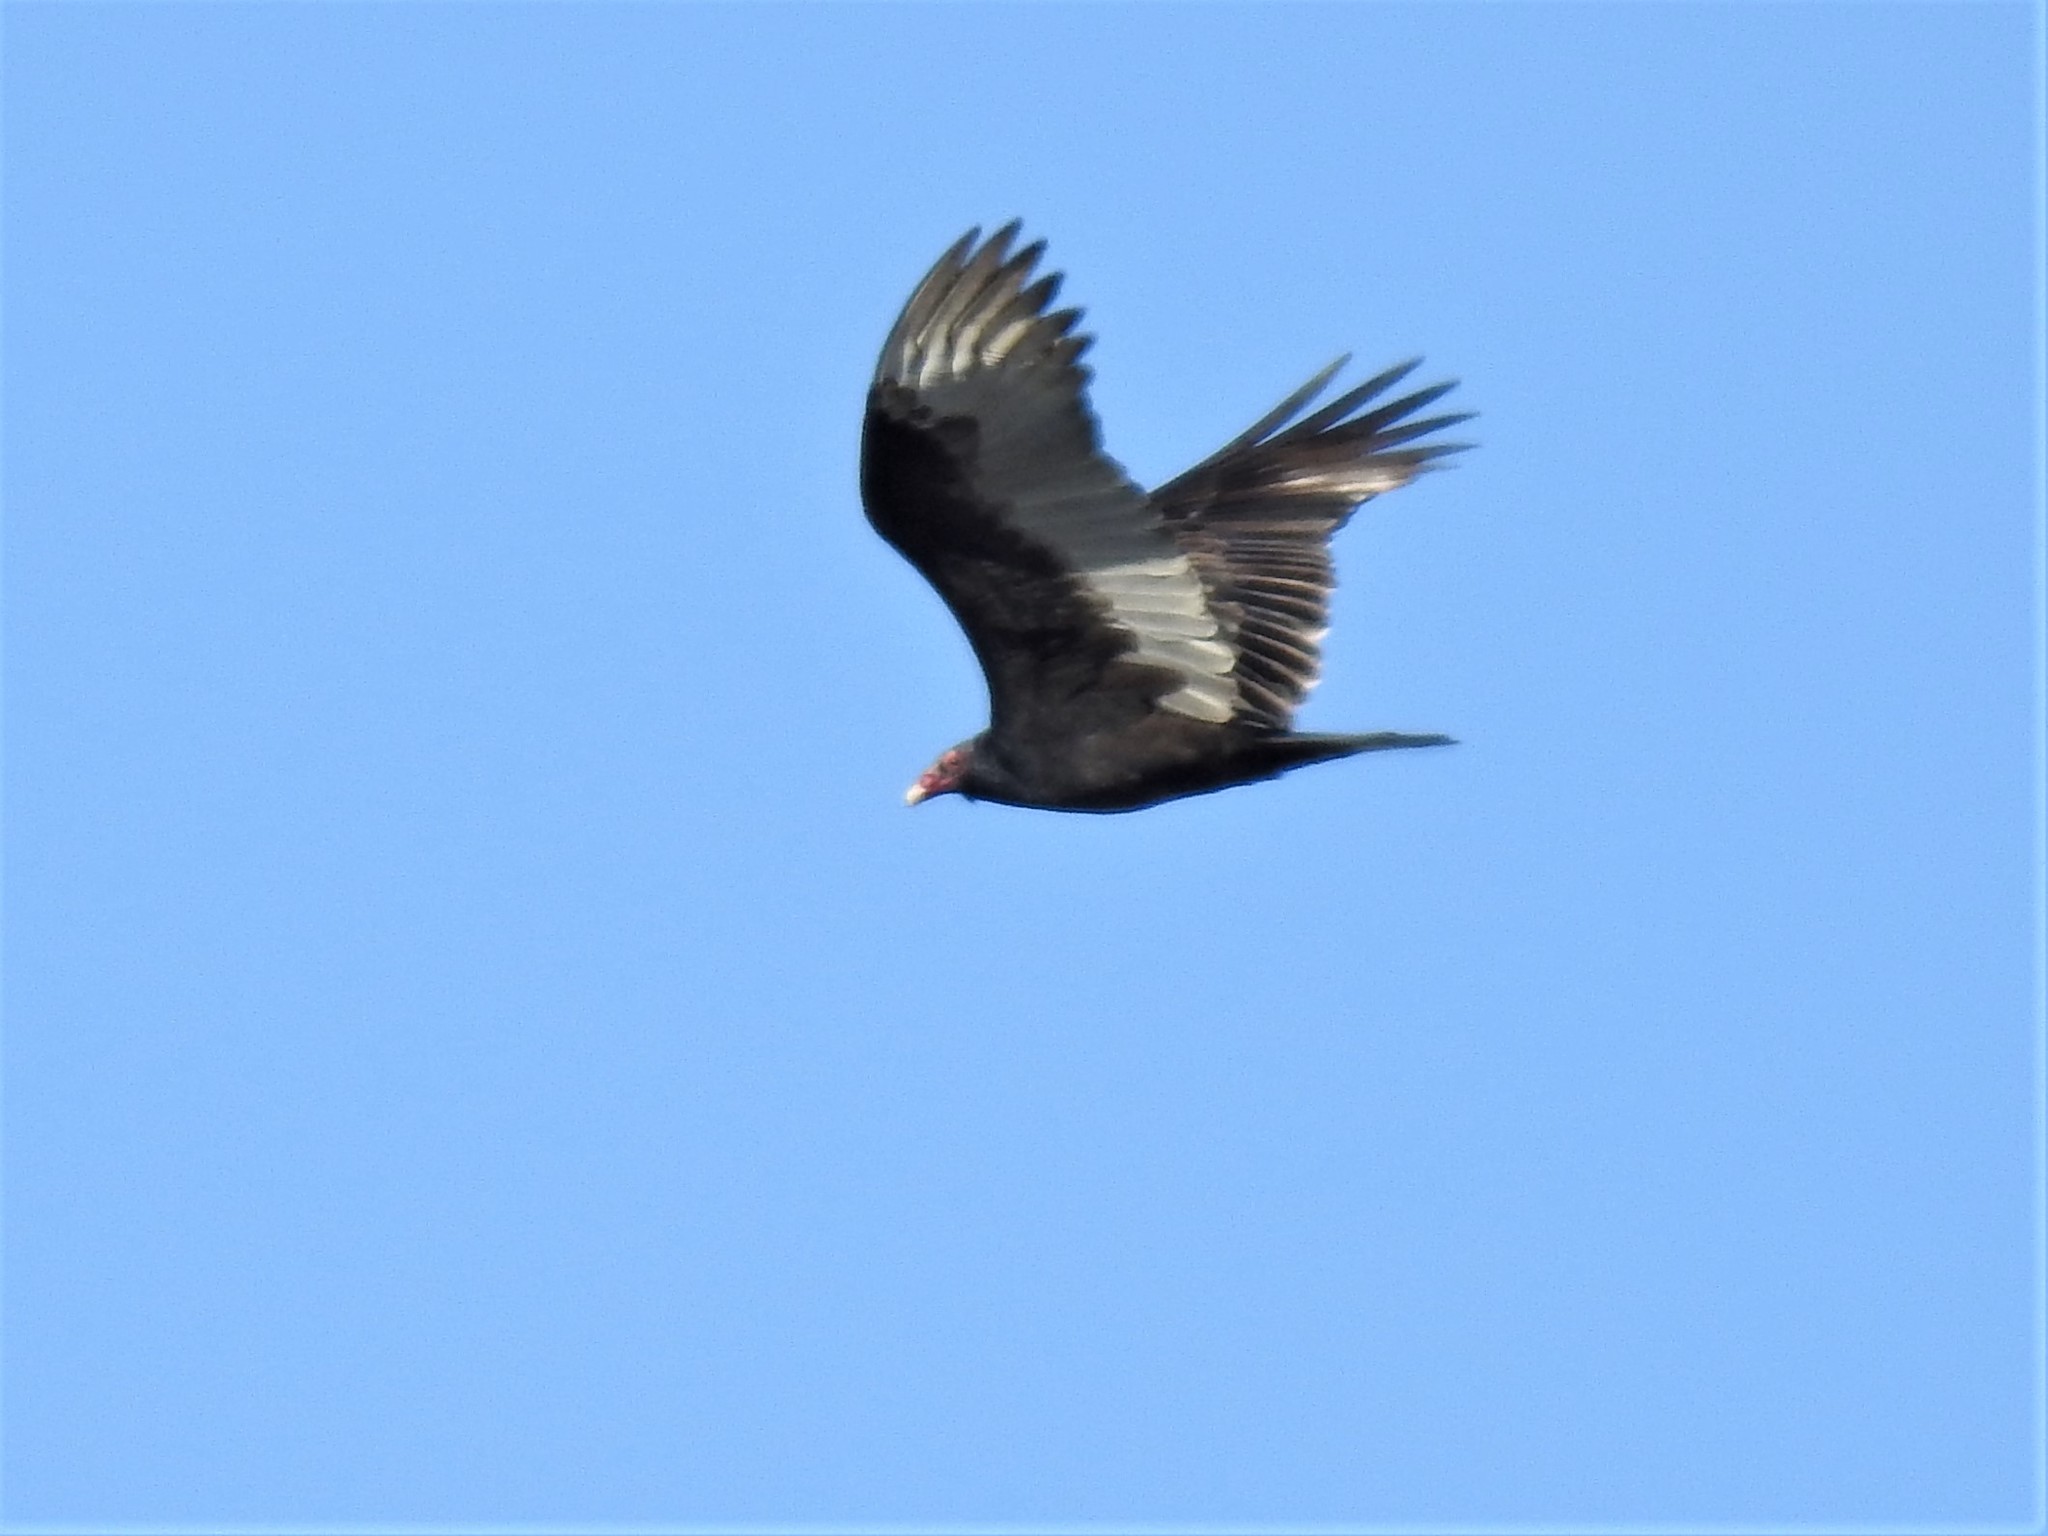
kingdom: Animalia
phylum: Chordata
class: Aves
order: Accipitriformes
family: Cathartidae
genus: Cathartes
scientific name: Cathartes aura
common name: Turkey vulture
